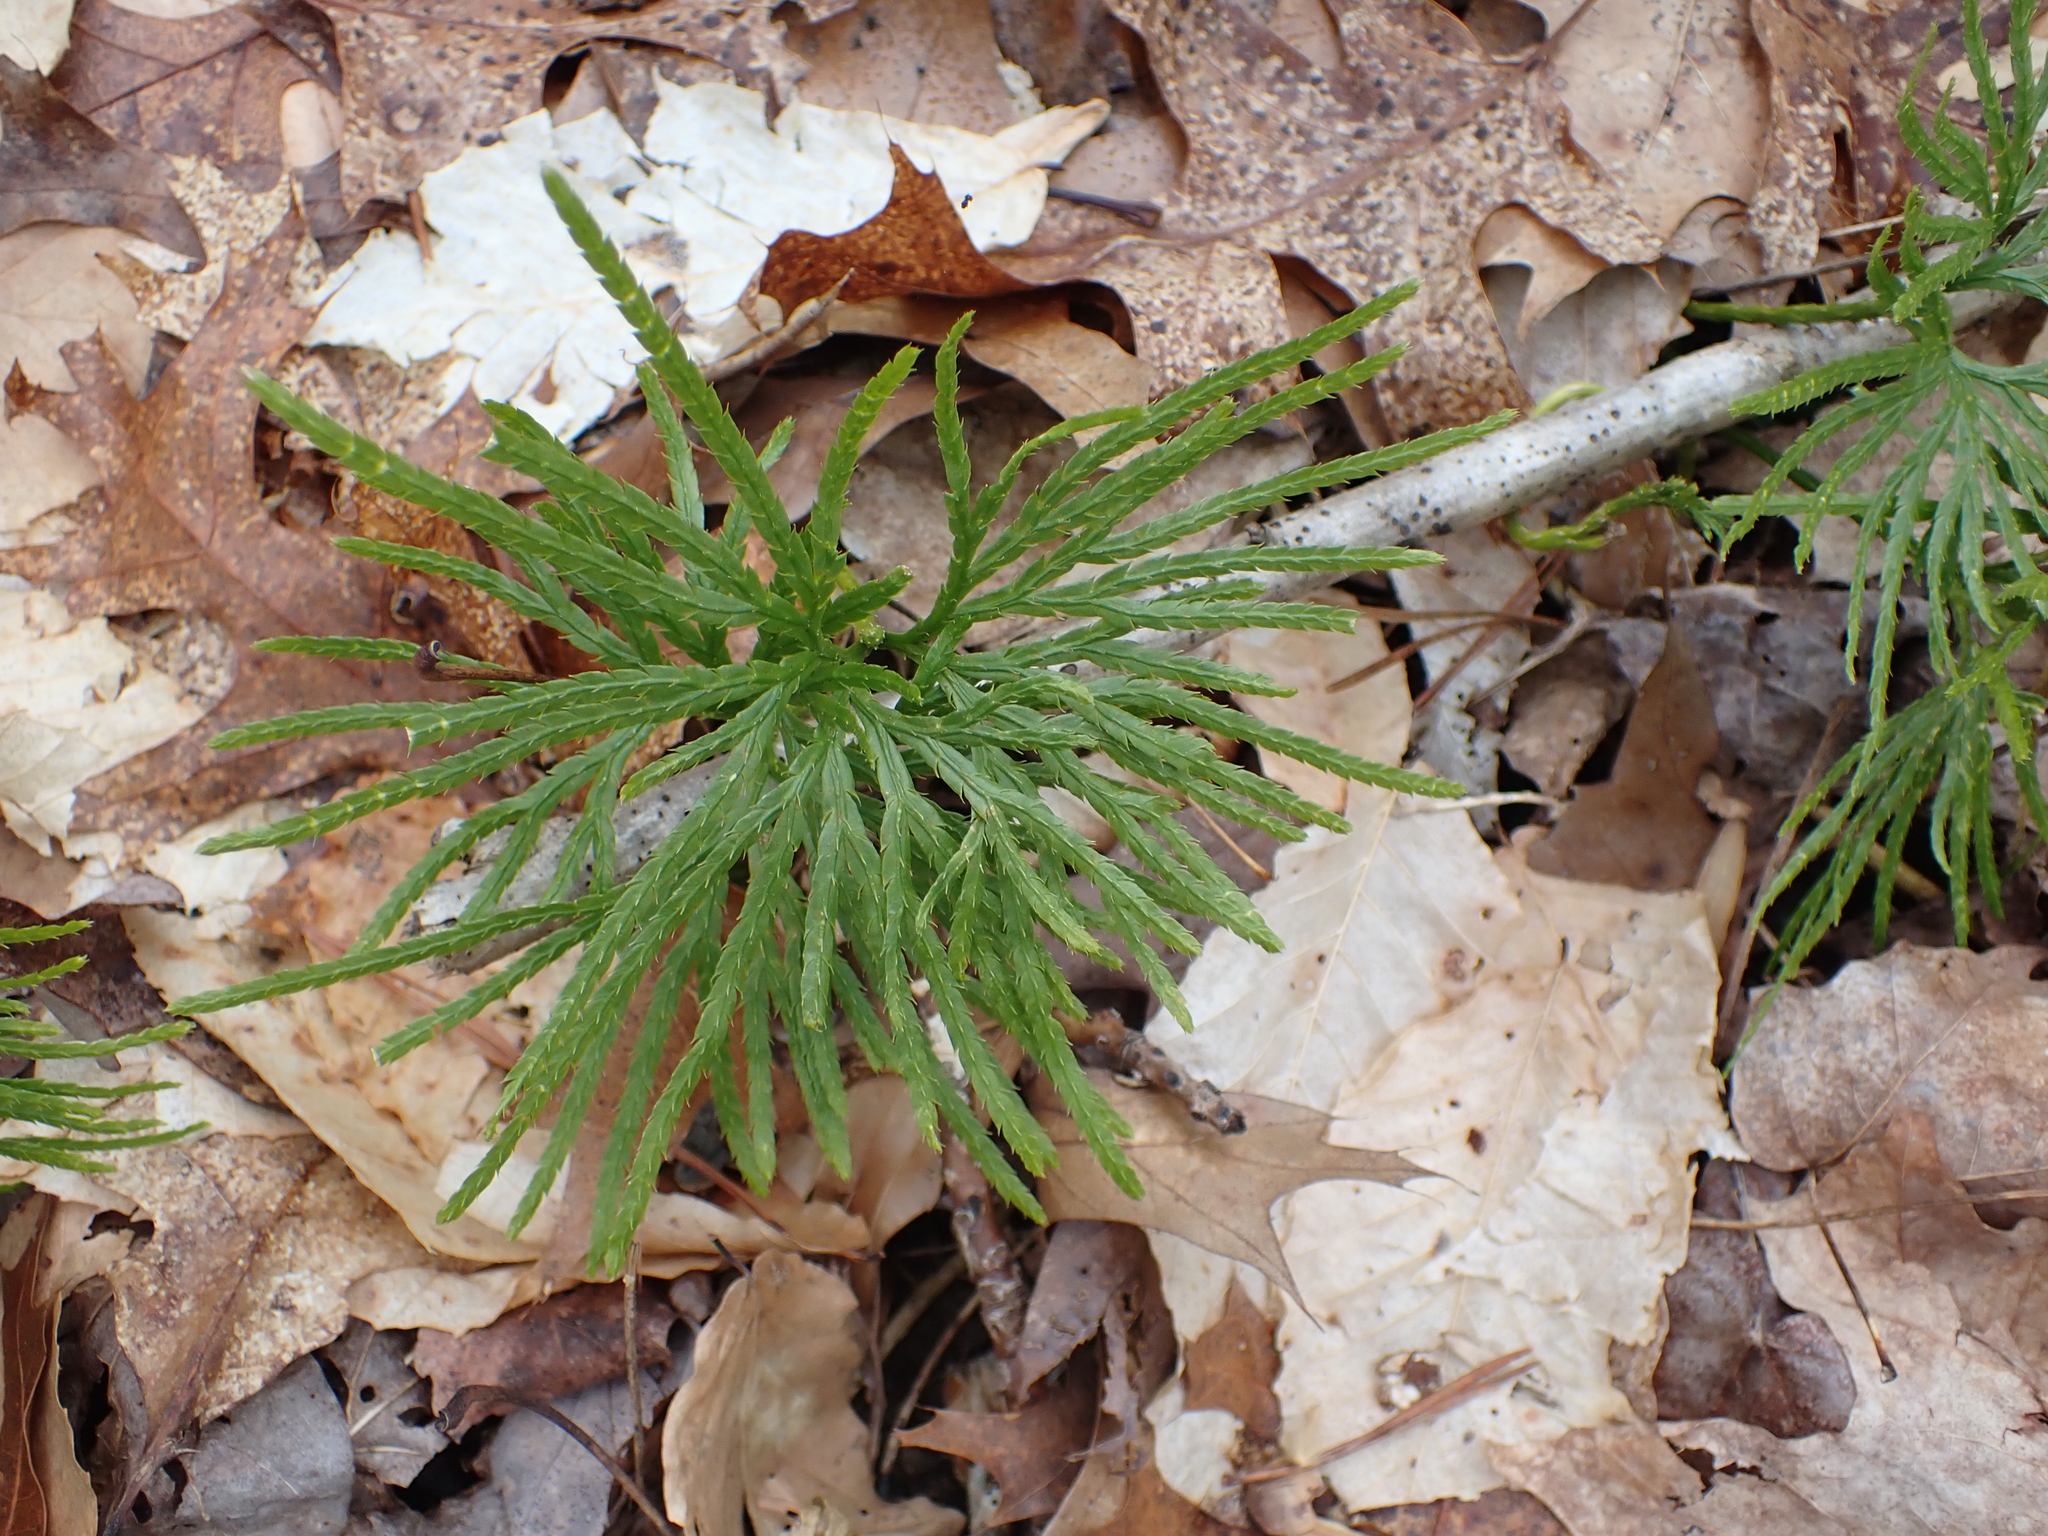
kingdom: Plantae
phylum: Tracheophyta
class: Lycopodiopsida
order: Lycopodiales
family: Lycopodiaceae
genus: Diphasiastrum
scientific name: Diphasiastrum digitatum
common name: Southern running-pine
